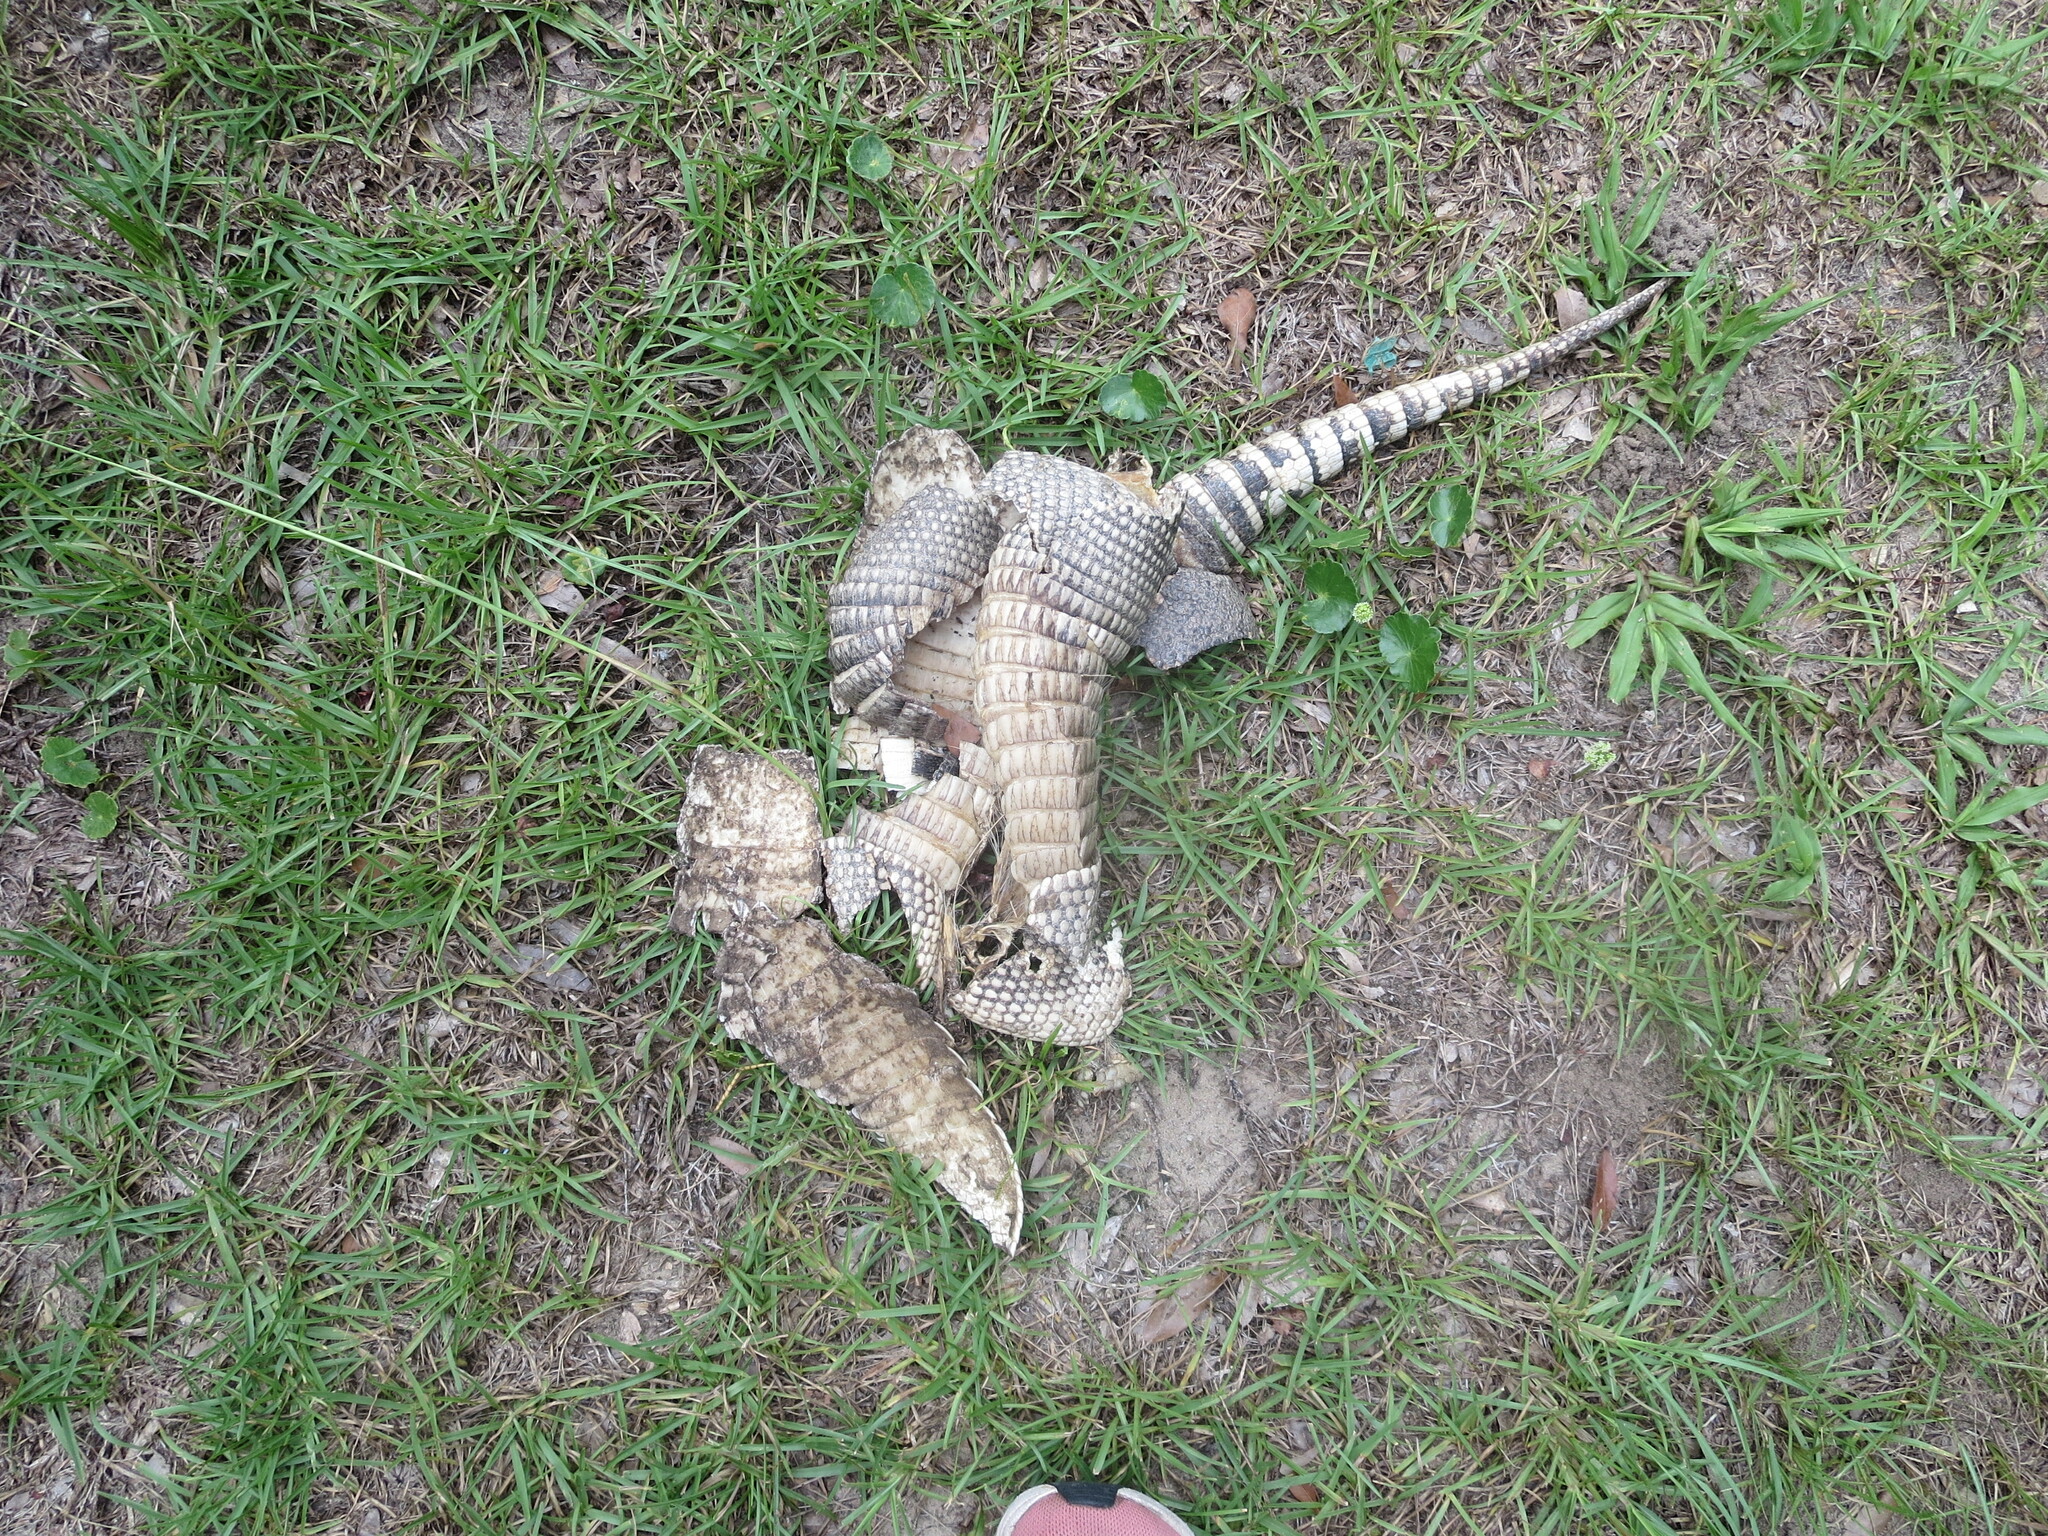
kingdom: Animalia
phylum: Chordata
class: Mammalia
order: Cingulata
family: Dasypodidae
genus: Dasypus
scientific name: Dasypus novemcinctus
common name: Nine-banded armadillo
